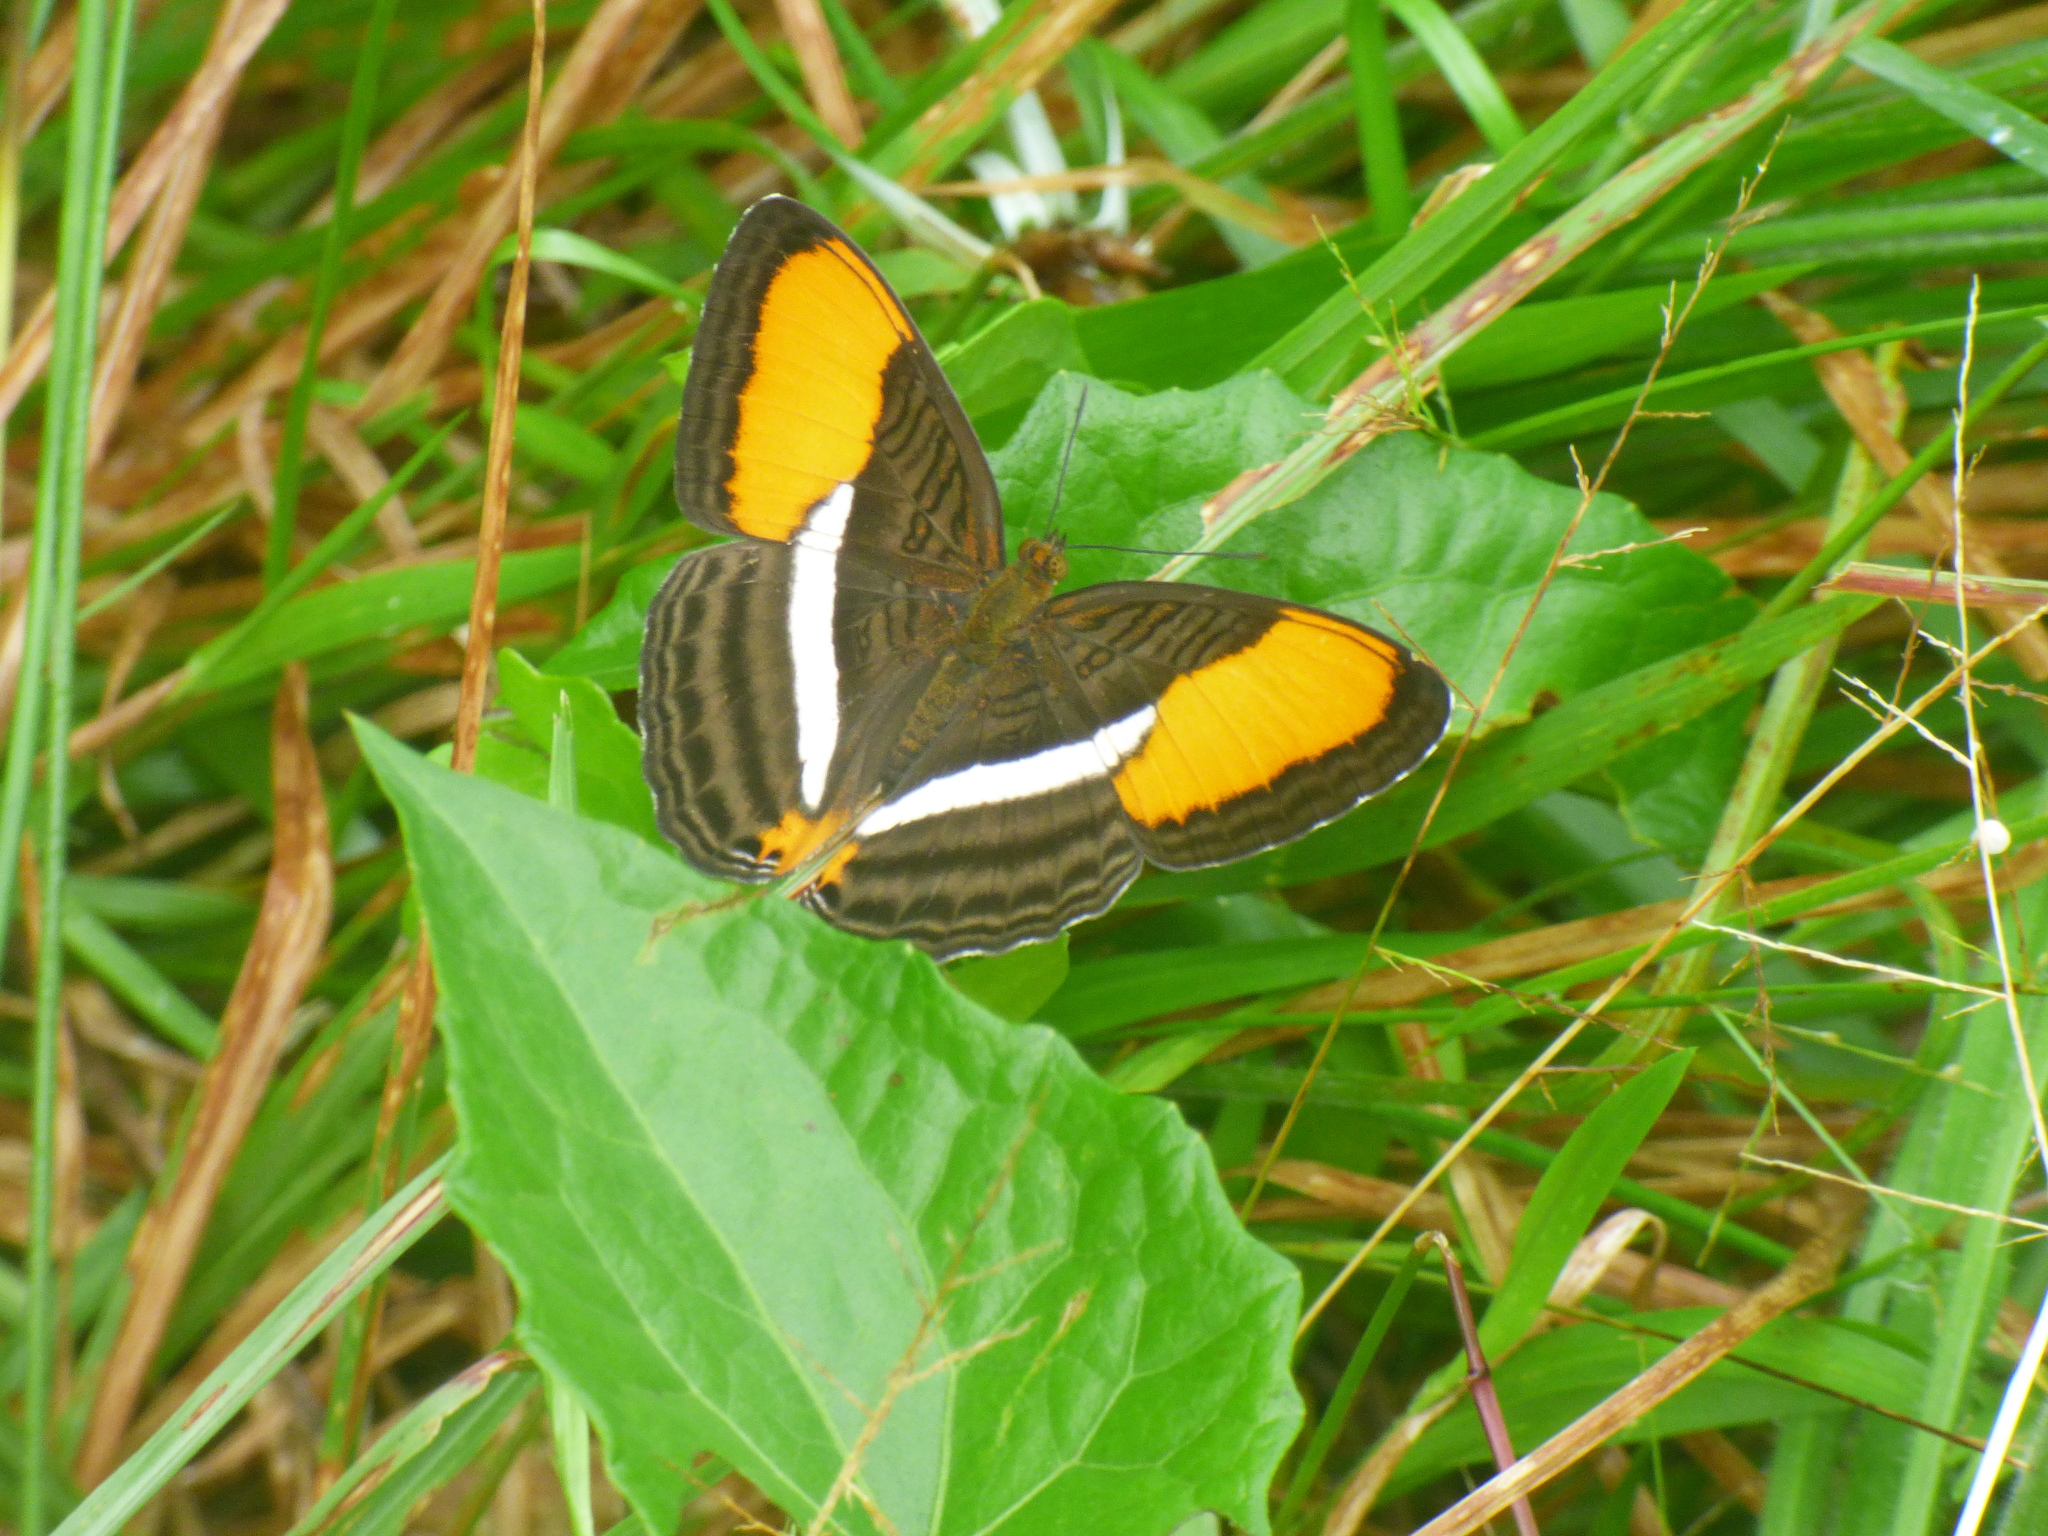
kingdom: Animalia
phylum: Arthropoda
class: Insecta
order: Lepidoptera
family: Nymphalidae
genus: Limenitis
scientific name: Limenitis cytherea
